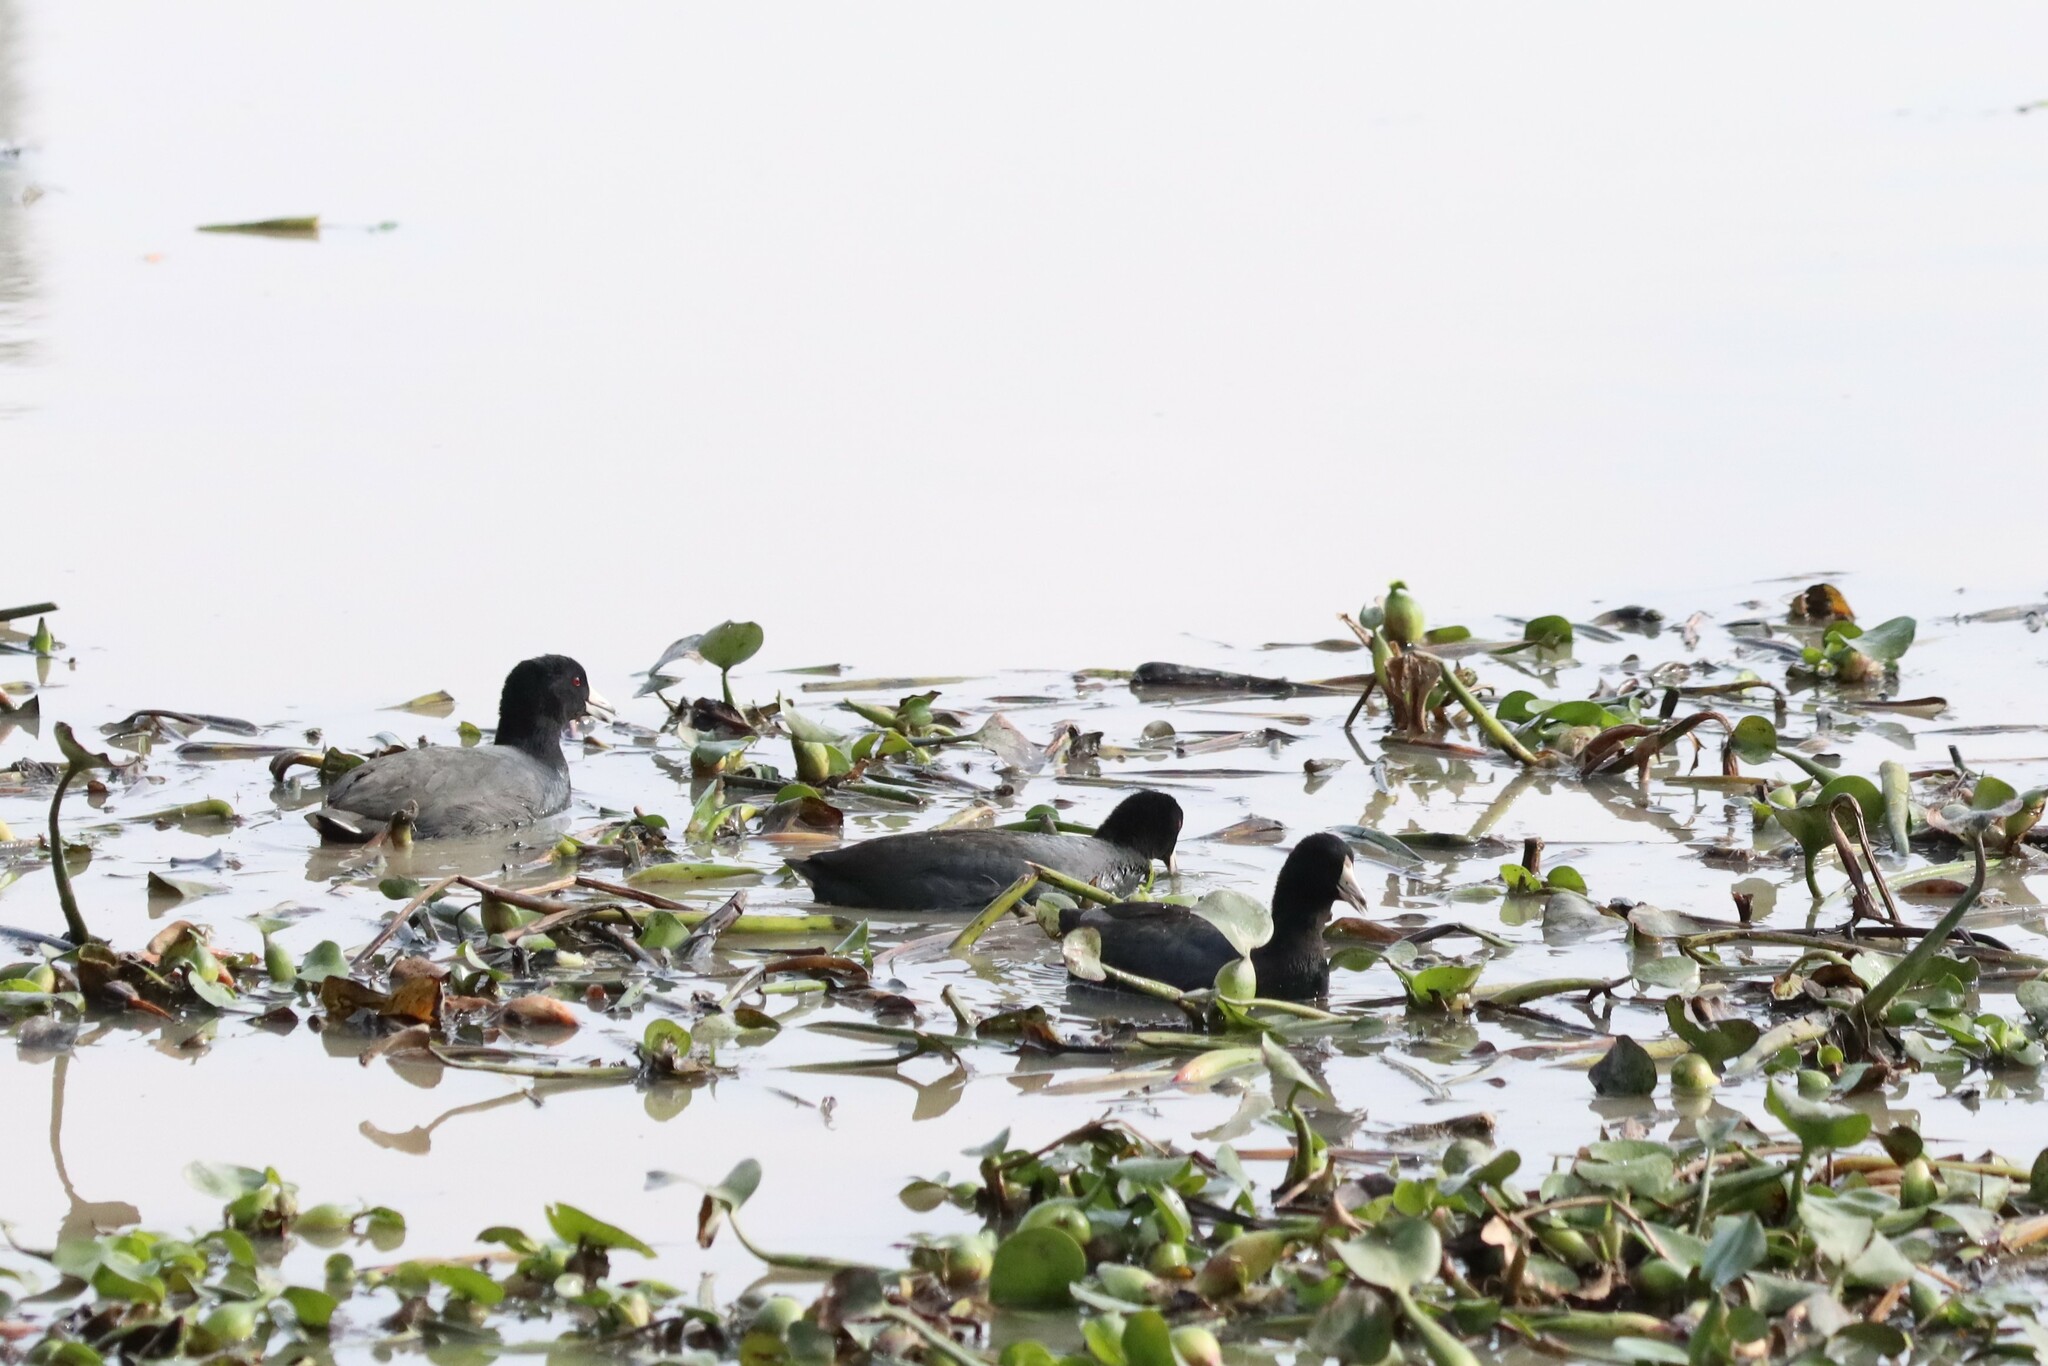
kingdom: Animalia
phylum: Chordata
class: Aves
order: Gruiformes
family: Rallidae
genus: Fulica
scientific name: Fulica americana
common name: American coot
